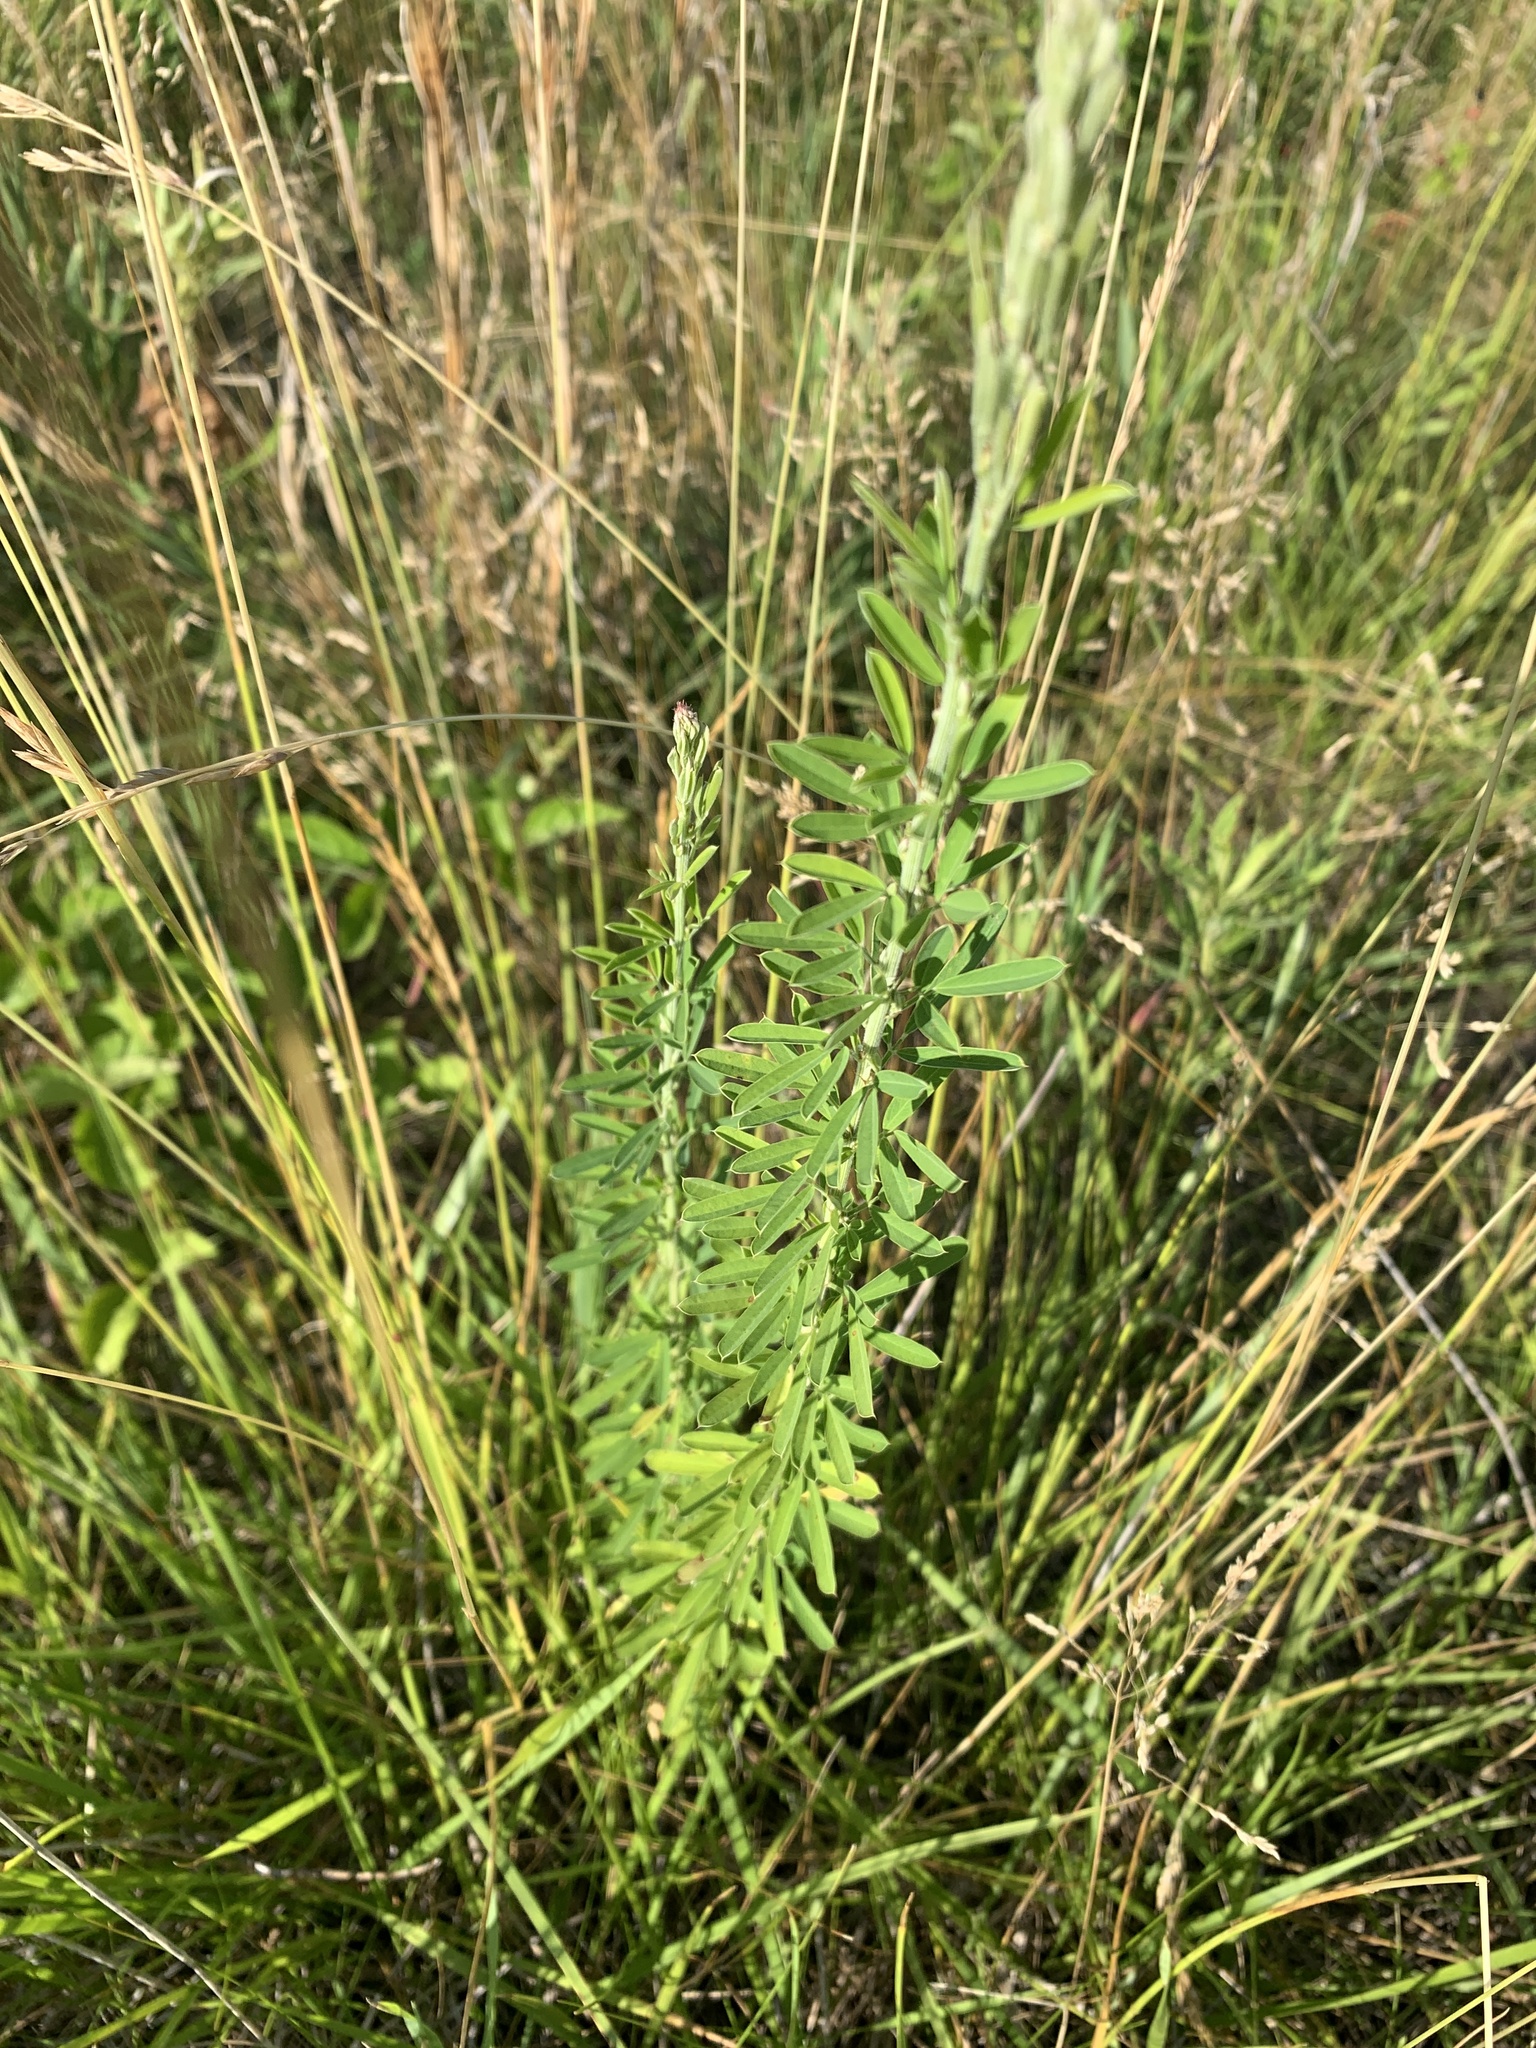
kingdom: Plantae
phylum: Tracheophyta
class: Magnoliopsida
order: Fabales
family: Fabaceae
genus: Lespedeza
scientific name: Lespedeza cuneata
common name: Chinese bush-clover
